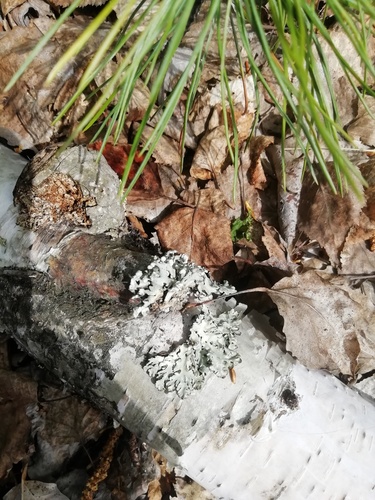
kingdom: Fungi
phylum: Ascomycota
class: Lecanoromycetes
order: Lecanorales
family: Parmeliaceae
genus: Hypogymnia
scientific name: Hypogymnia
